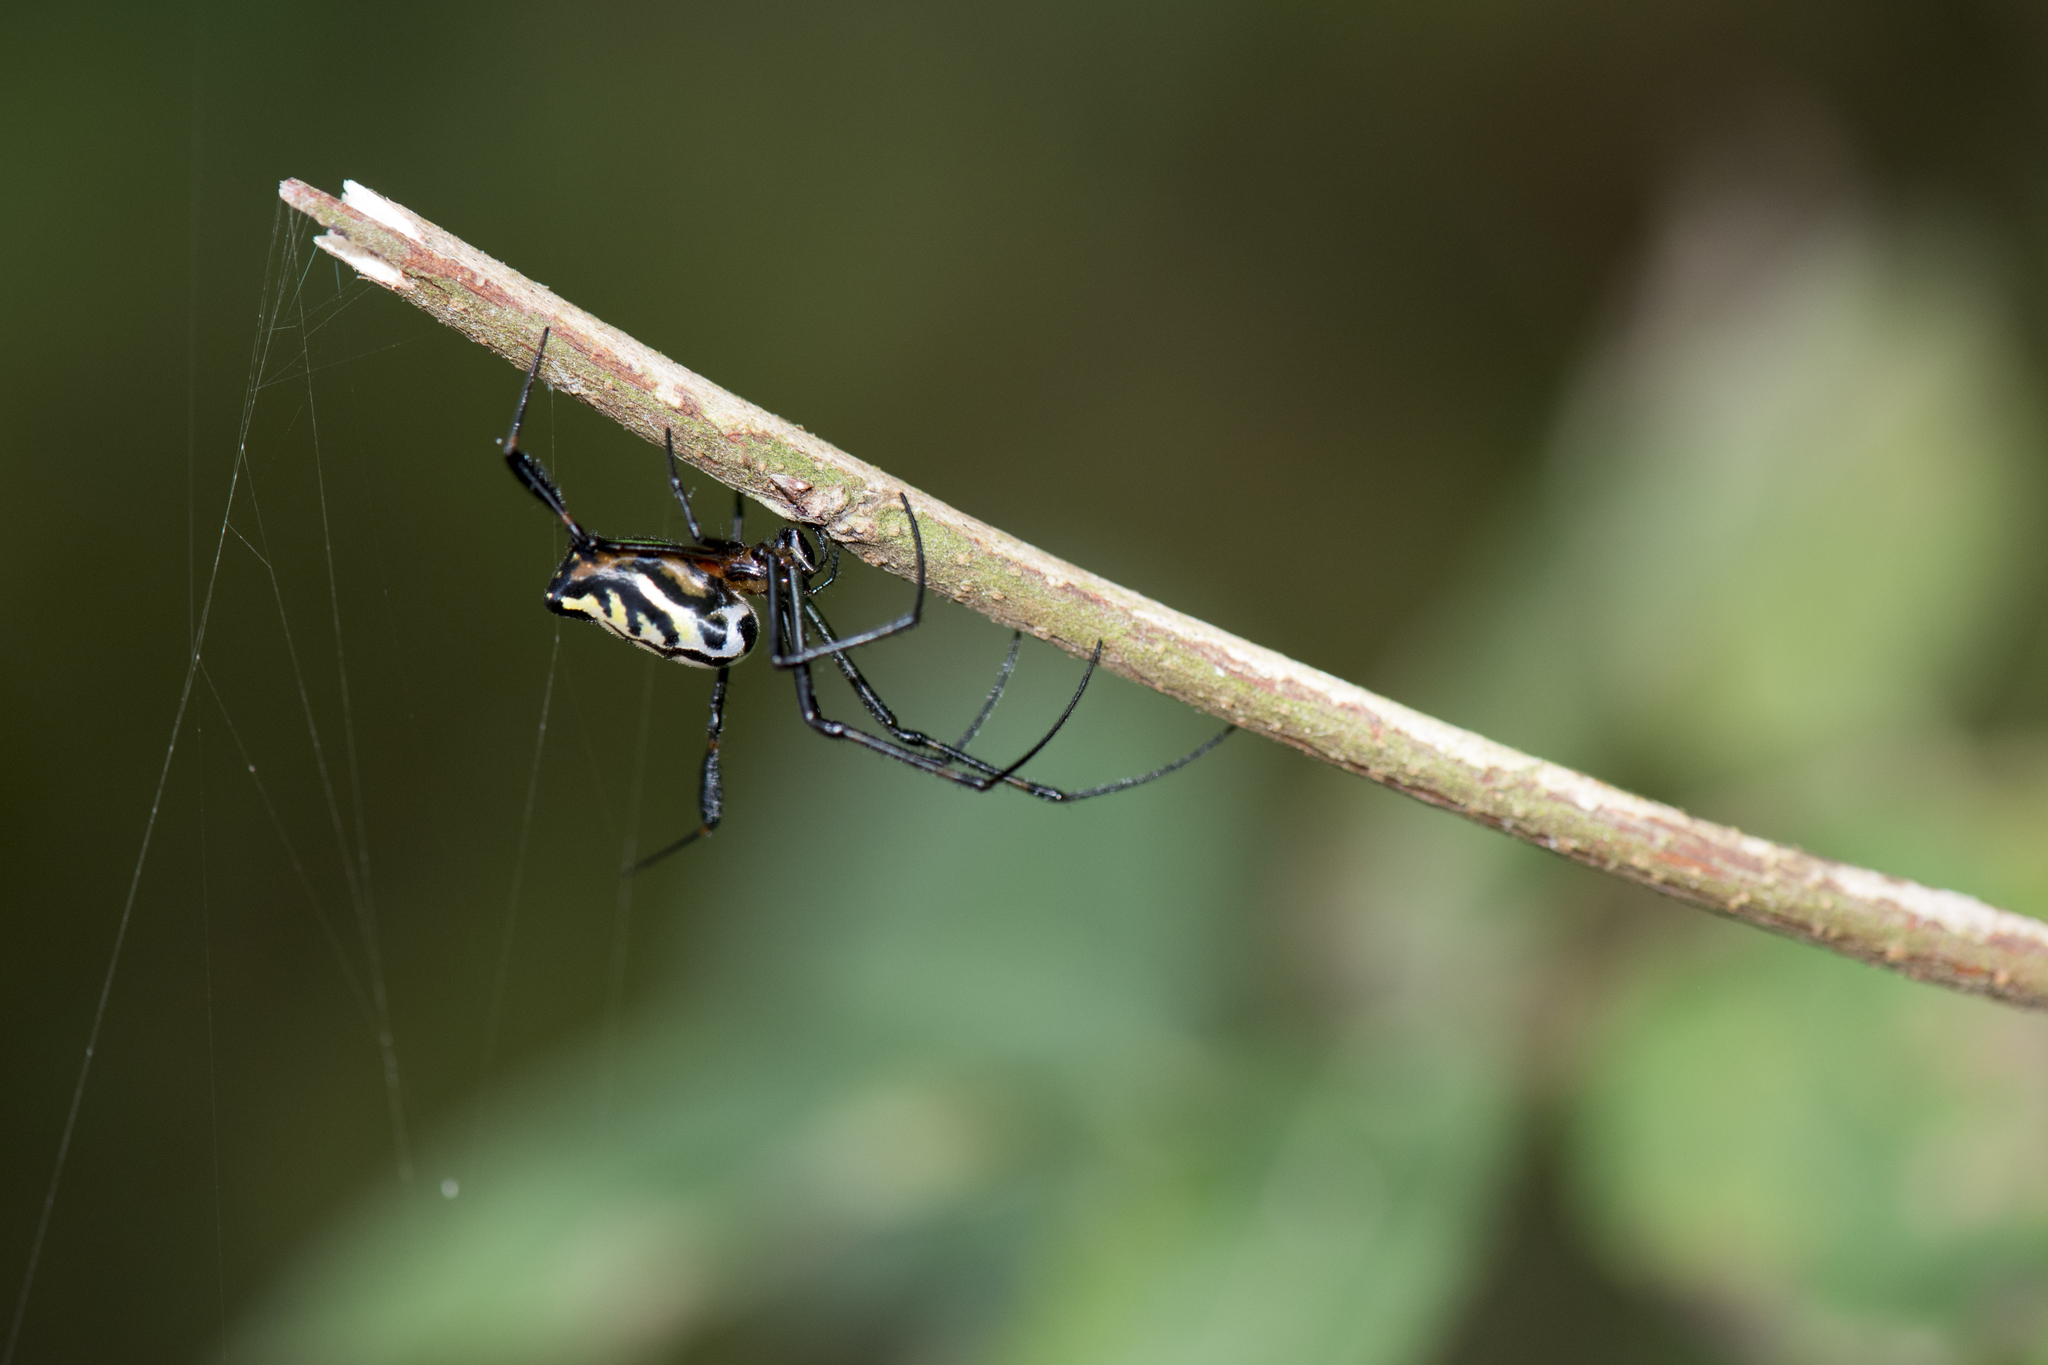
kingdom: Animalia
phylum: Arthropoda
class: Arachnida
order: Araneae
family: Tetragnathidae
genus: Leucauge
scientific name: Leucauge tessellata
